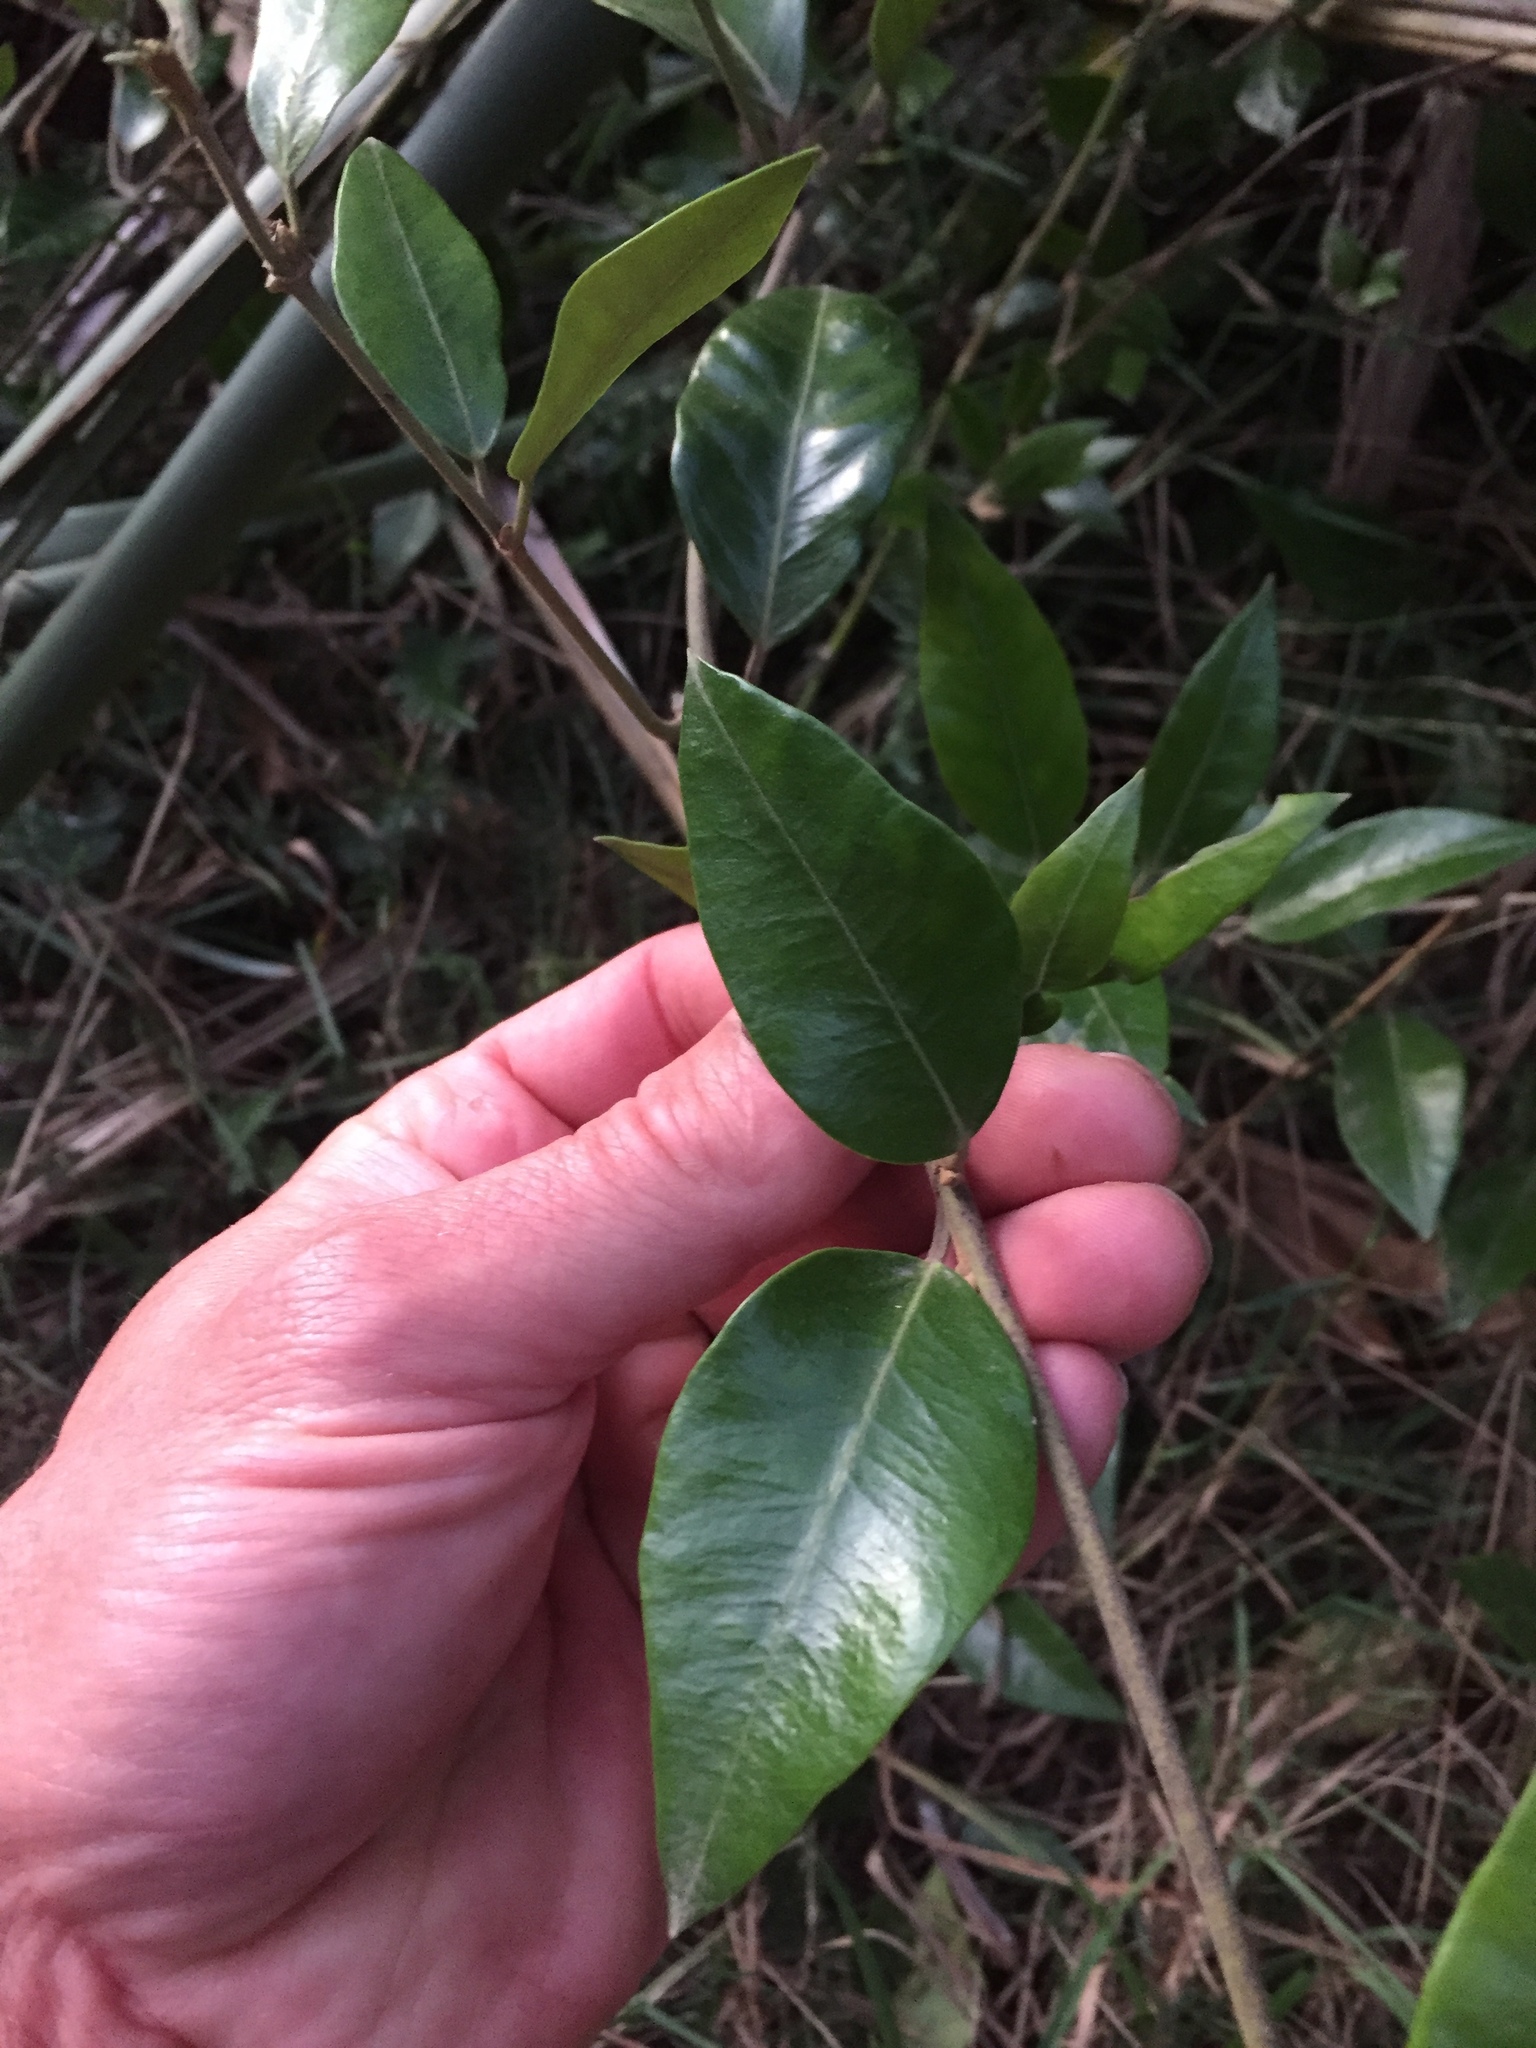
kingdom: Plantae
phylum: Tracheophyta
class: Magnoliopsida
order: Gentianales
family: Apocynaceae
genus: Parsonsia
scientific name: Parsonsia heterophylla
